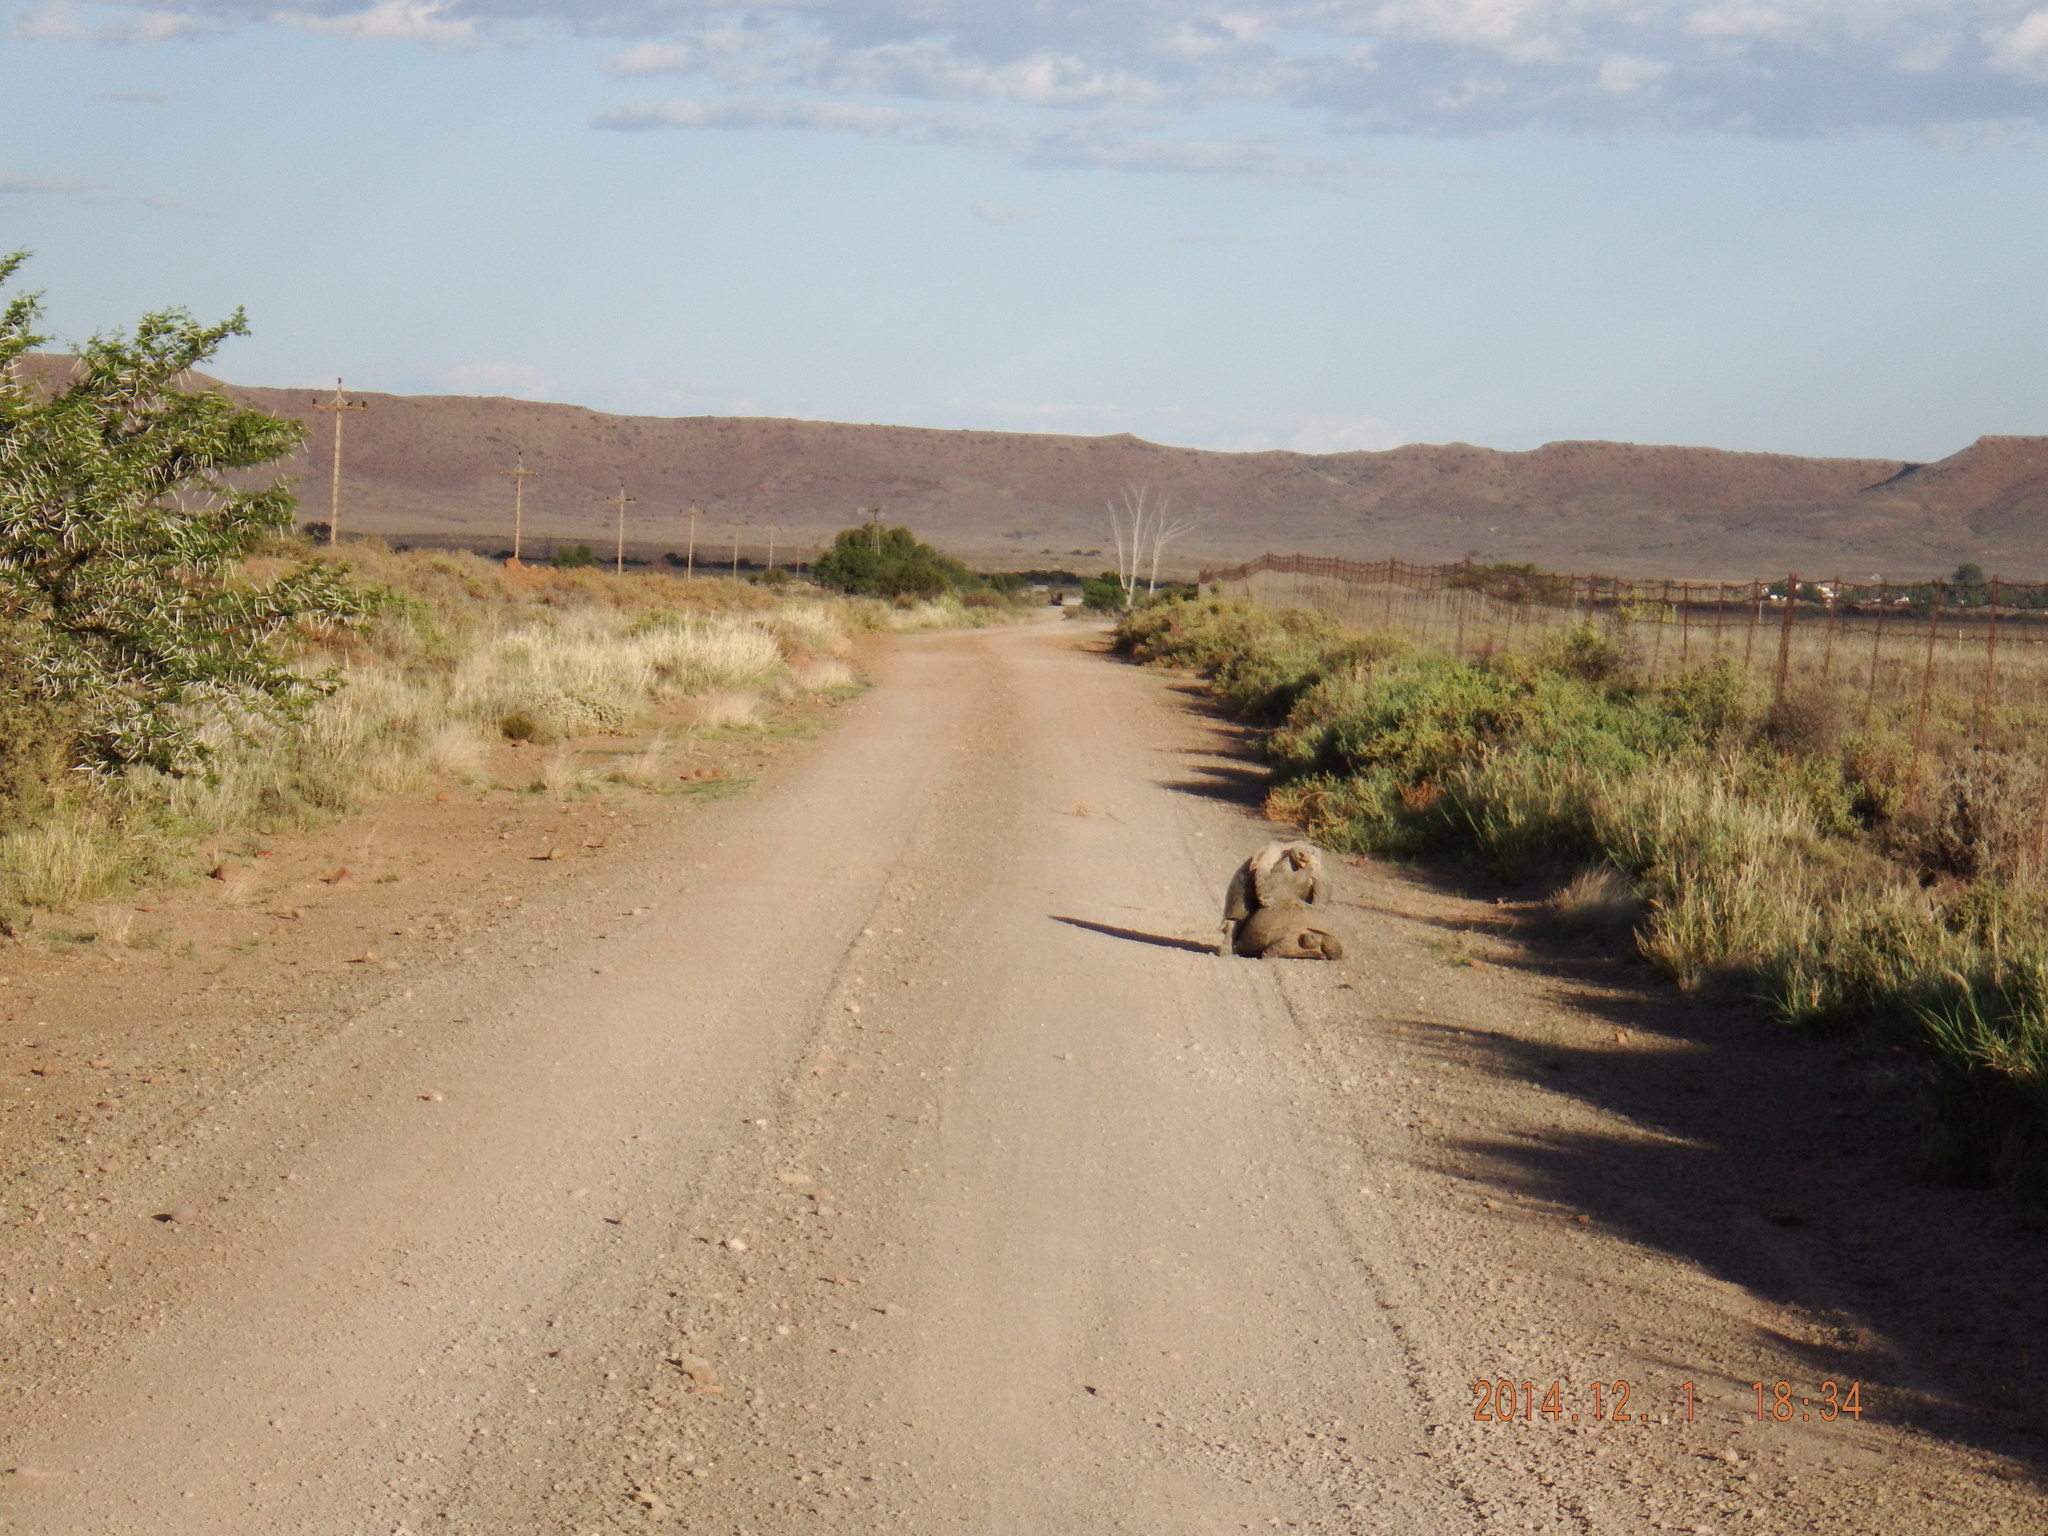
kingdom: Animalia
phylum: Chordata
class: Testudines
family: Testudinidae
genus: Stigmochelys
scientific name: Stigmochelys pardalis
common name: Leopard tortoise
